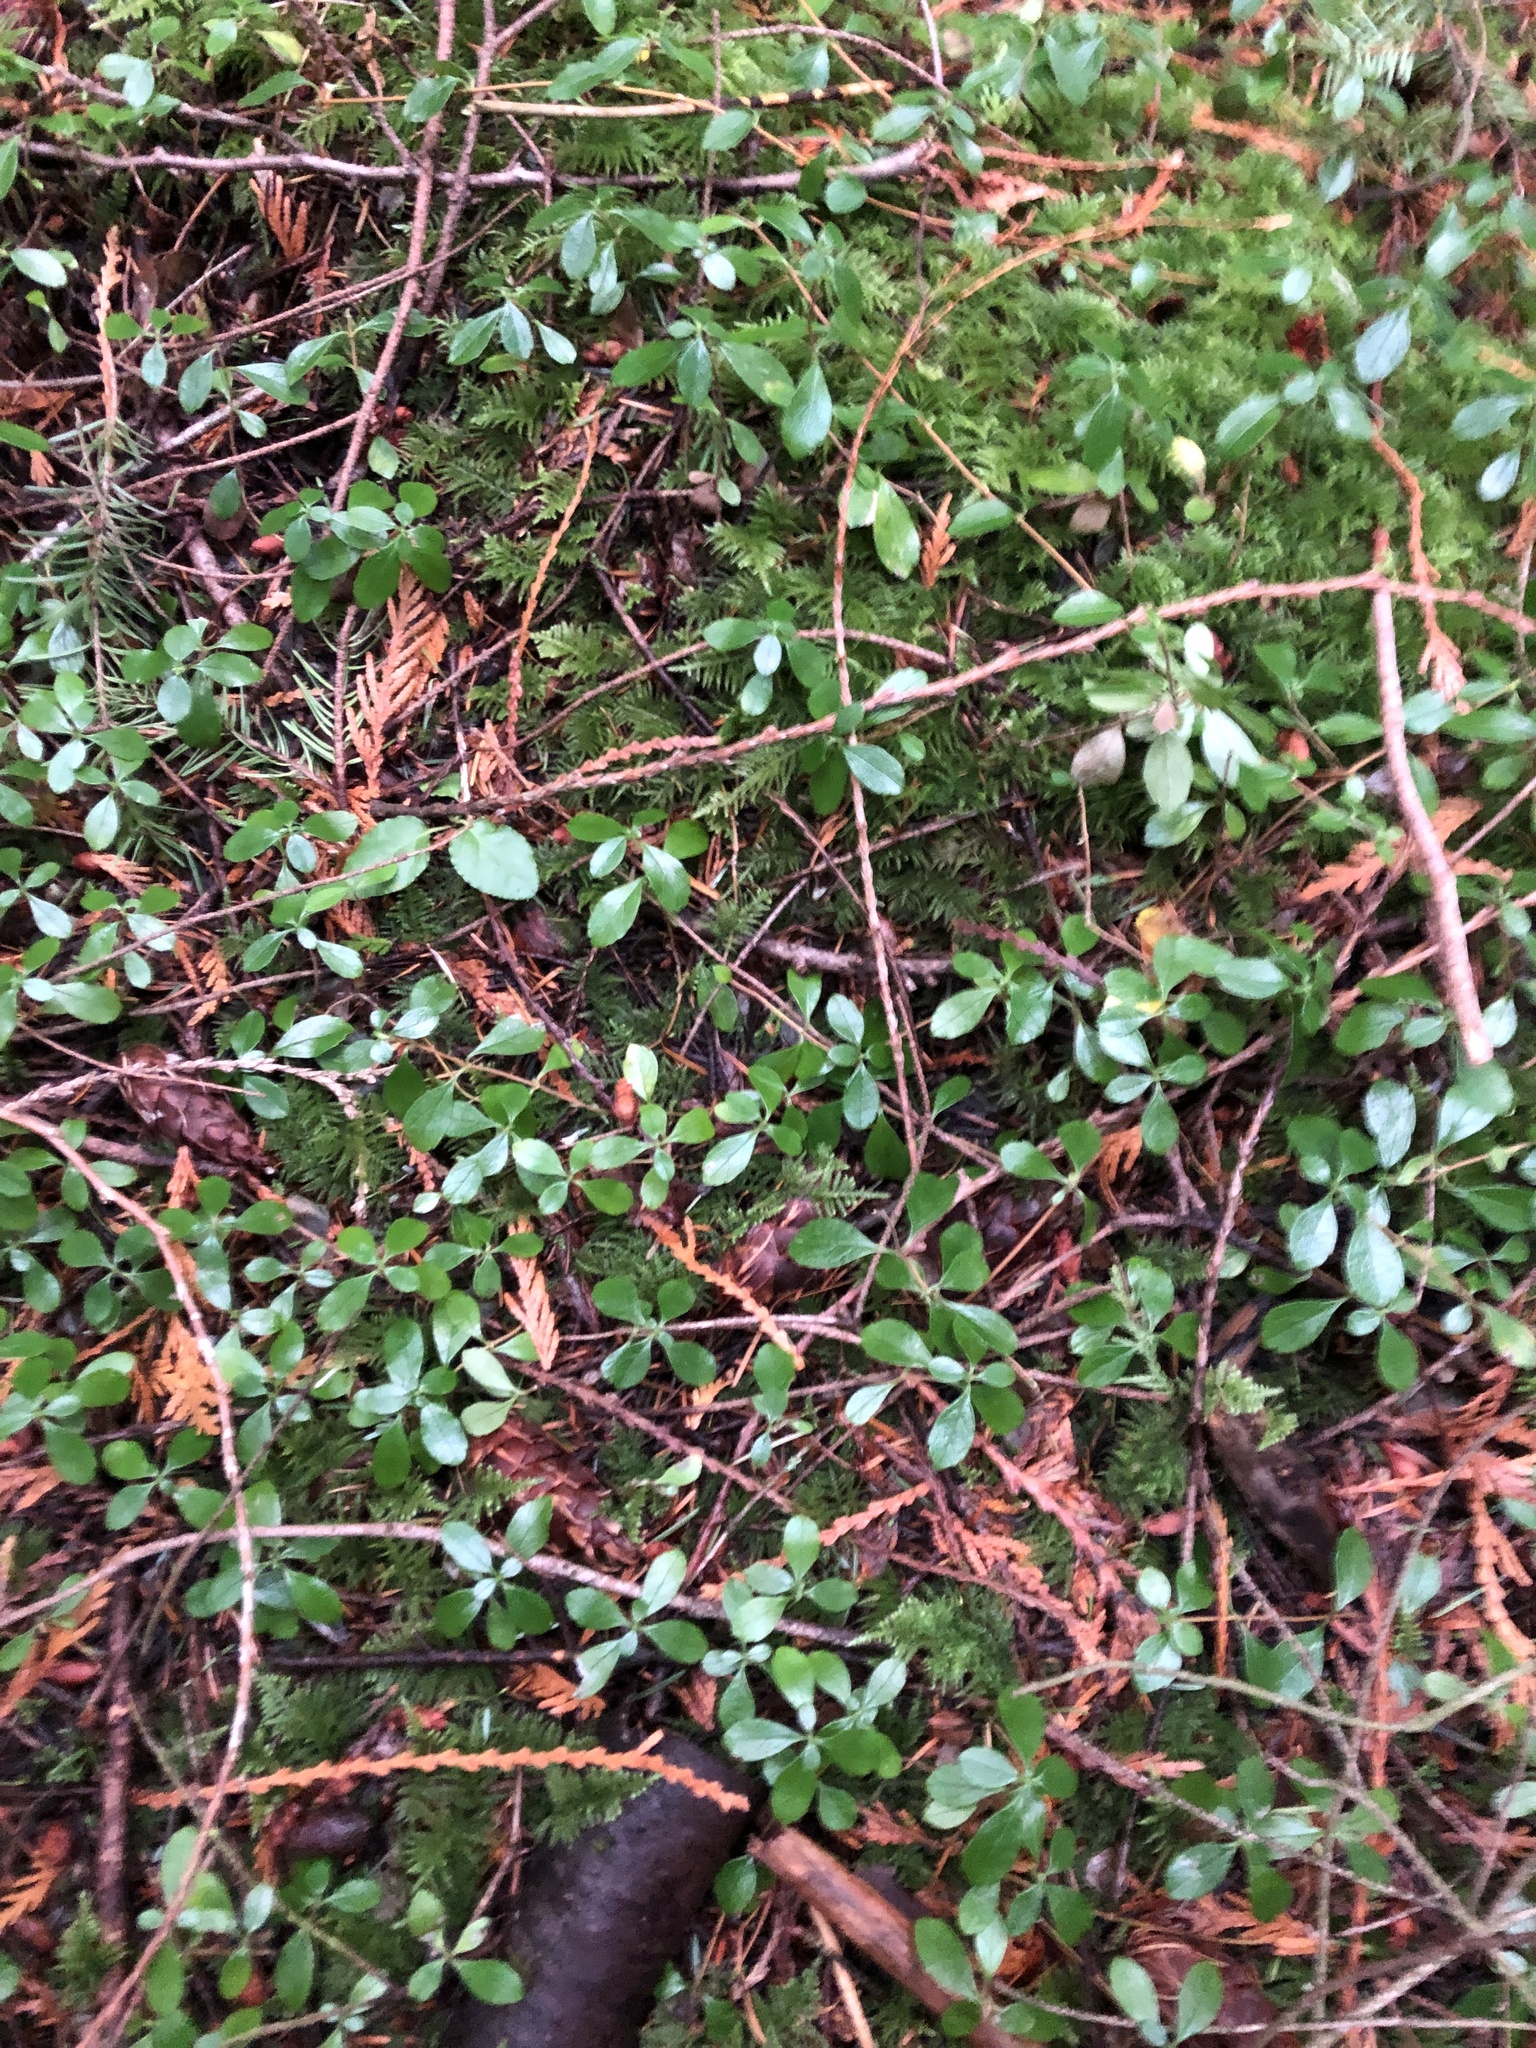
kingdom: Plantae
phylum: Tracheophyta
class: Magnoliopsida
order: Dipsacales
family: Caprifoliaceae
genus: Linnaea
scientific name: Linnaea borealis
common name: Twinflower
